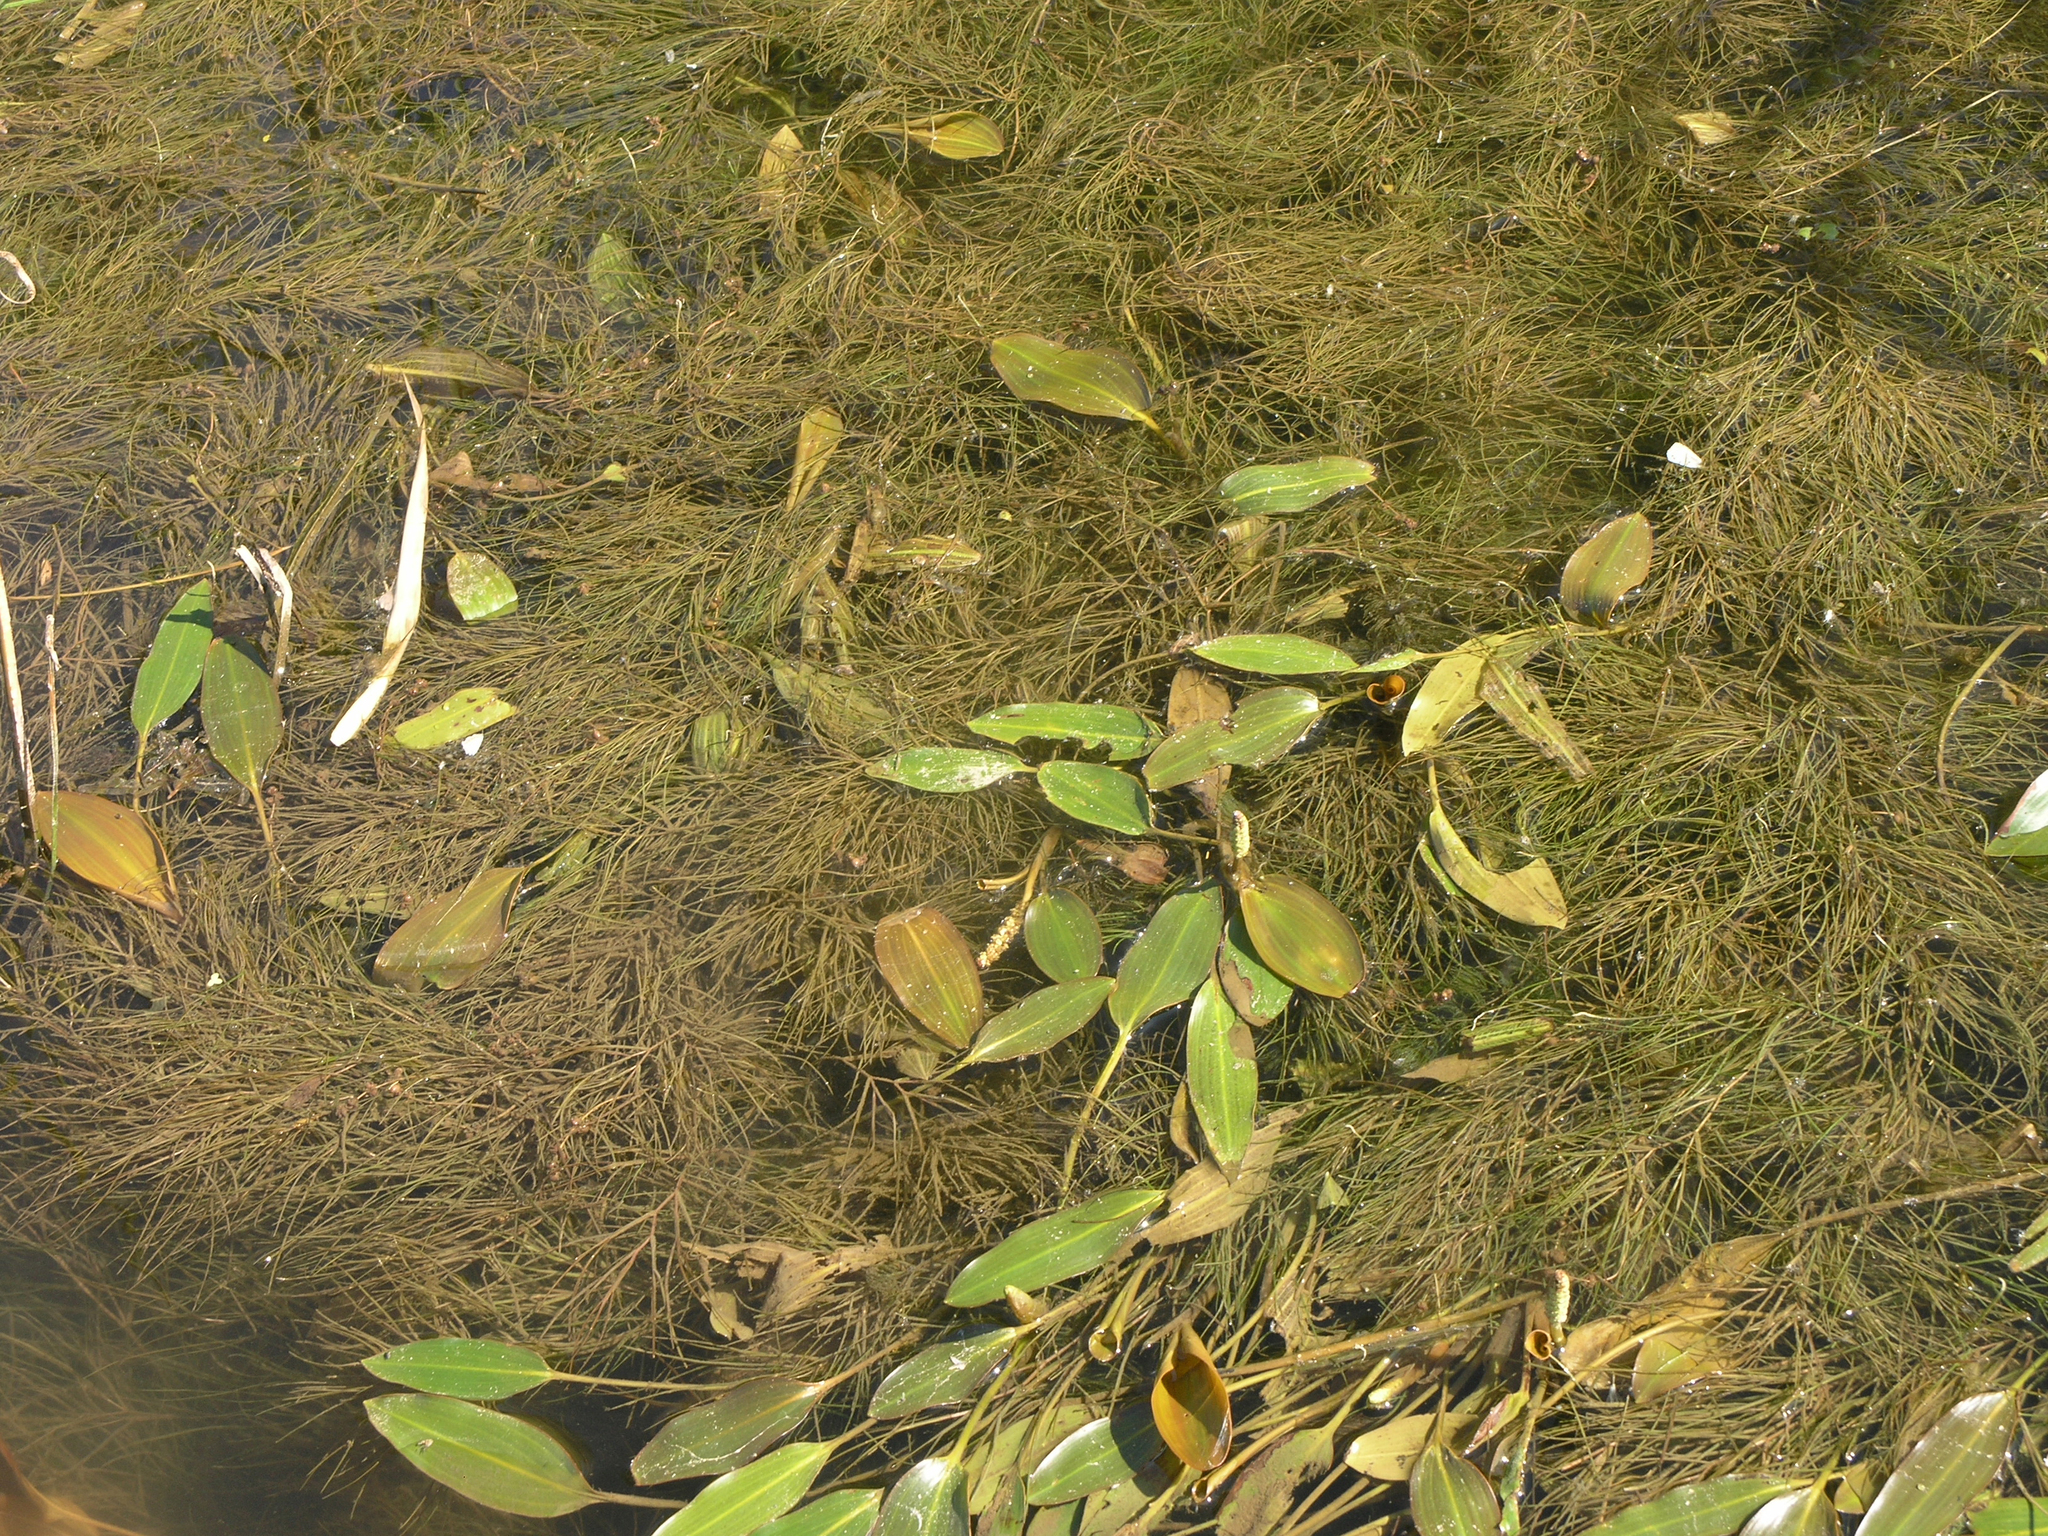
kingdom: Plantae
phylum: Tracheophyta
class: Liliopsida
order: Alismatales
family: Potamogetonaceae
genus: Stuckenia
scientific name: Stuckenia pectinata
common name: Sago pondweed
